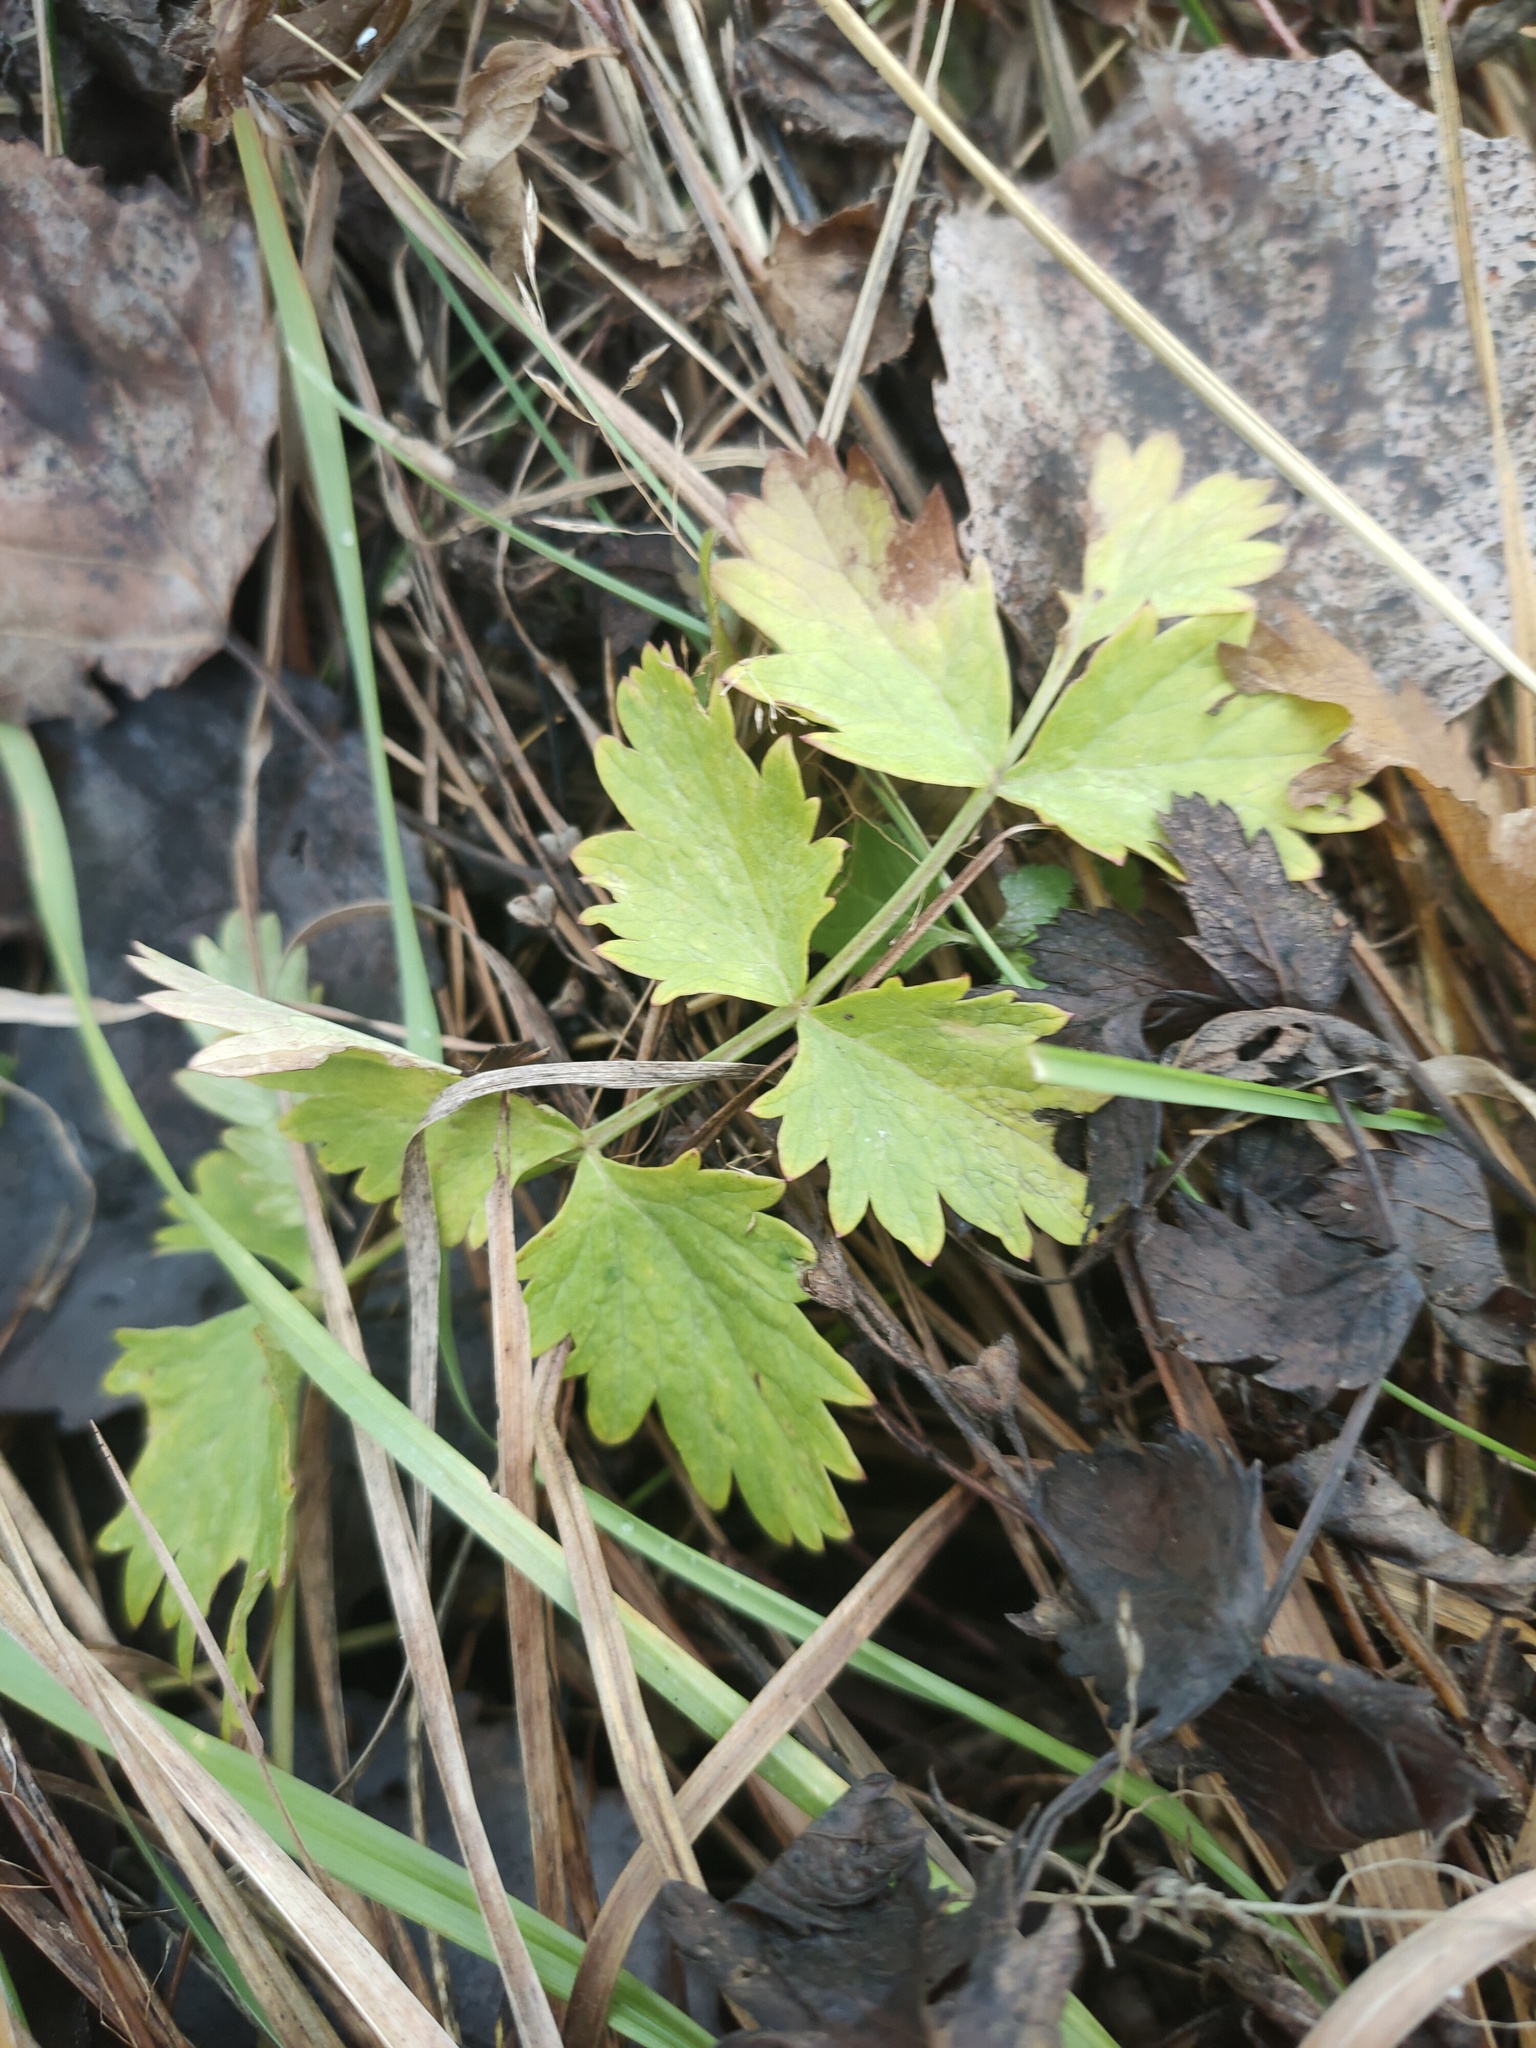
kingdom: Plantae
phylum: Tracheophyta
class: Magnoliopsida
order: Apiales
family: Apiaceae
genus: Pimpinella
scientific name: Pimpinella saxifraga
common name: Burnet-saxifrage
